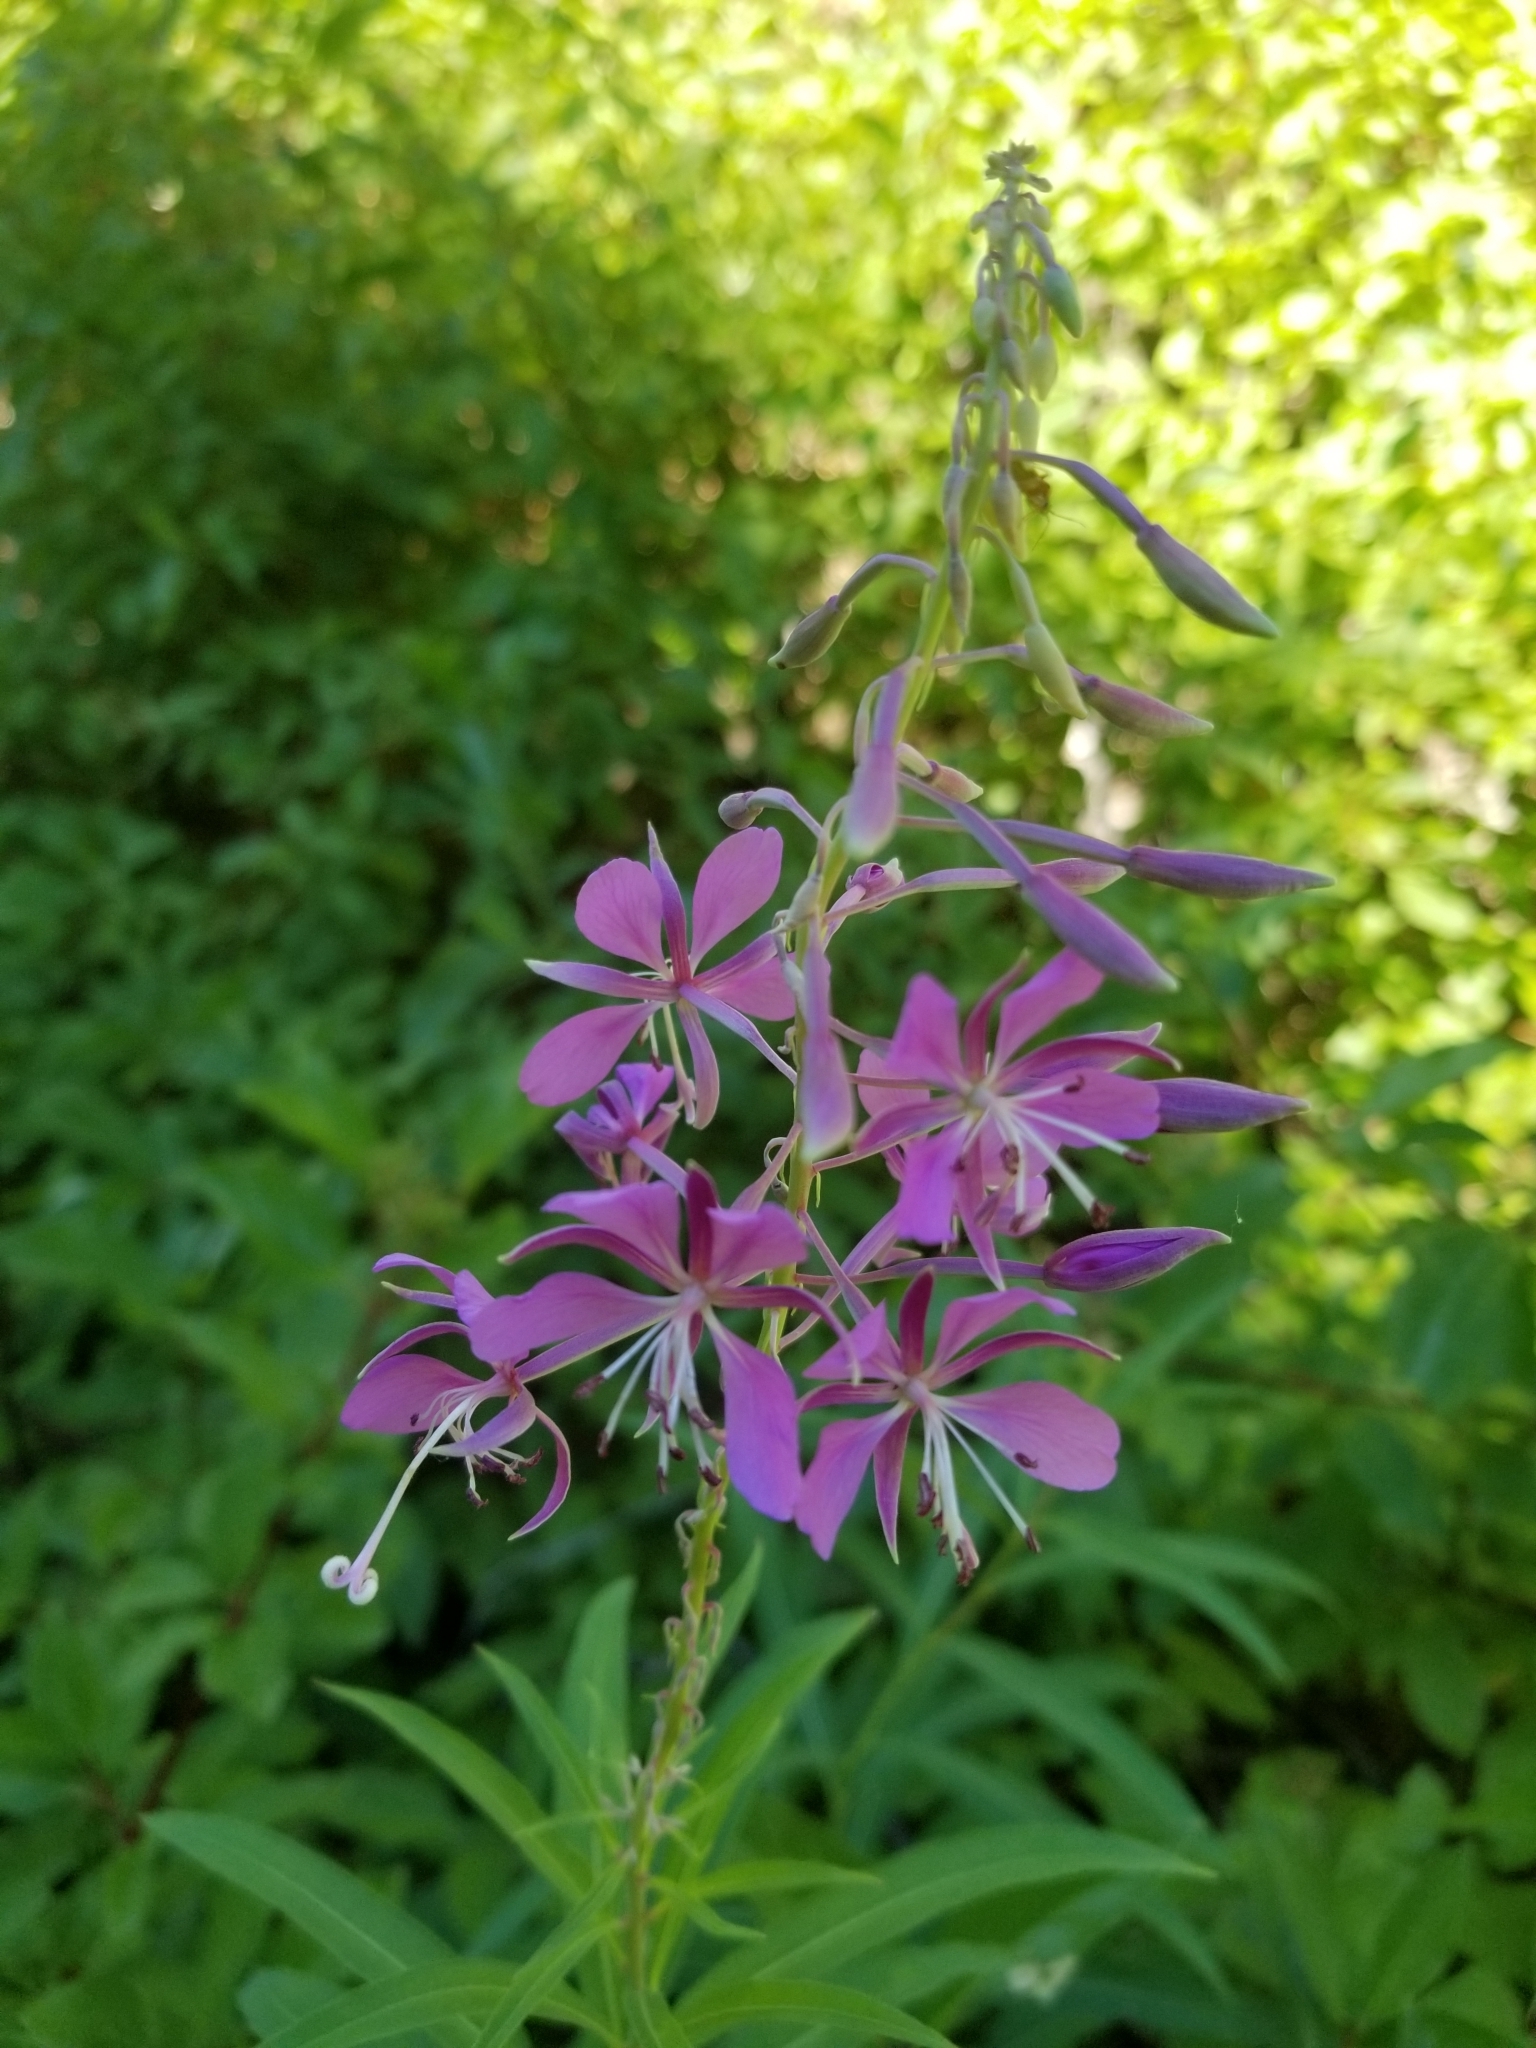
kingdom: Plantae
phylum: Tracheophyta
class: Magnoliopsida
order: Myrtales
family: Onagraceae
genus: Chamaenerion
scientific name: Chamaenerion angustifolium
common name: Fireweed
